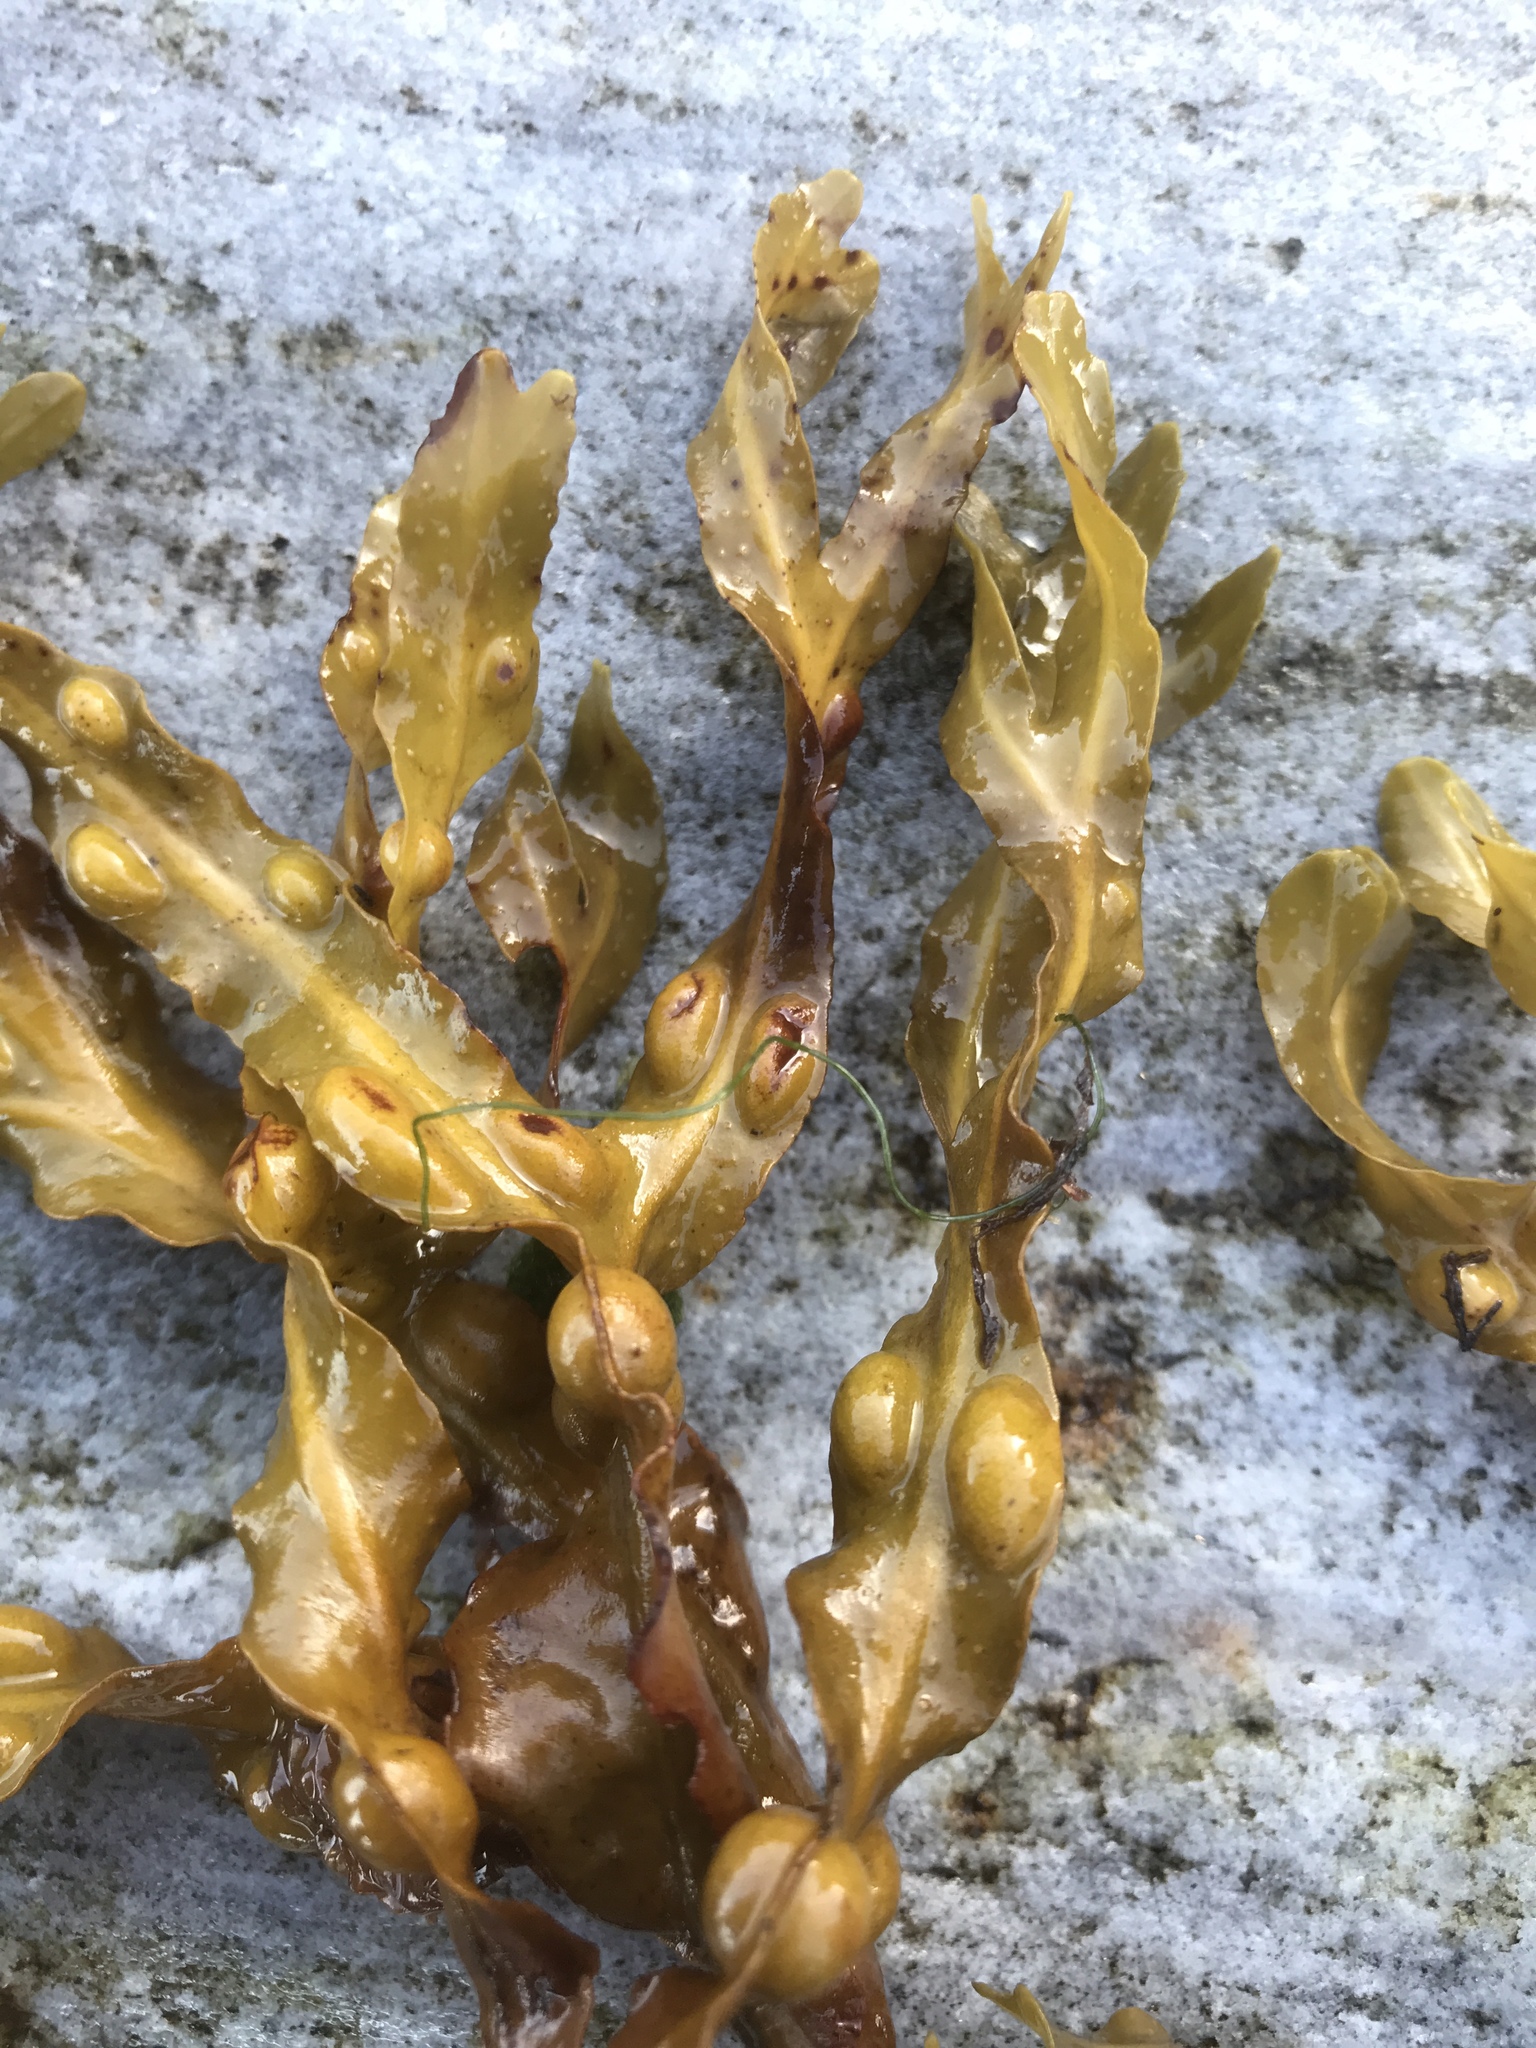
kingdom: Chromista
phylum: Ochrophyta
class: Phaeophyceae
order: Fucales
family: Fucaceae
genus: Fucus
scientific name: Fucus vesiculosus
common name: Bladder wrack
